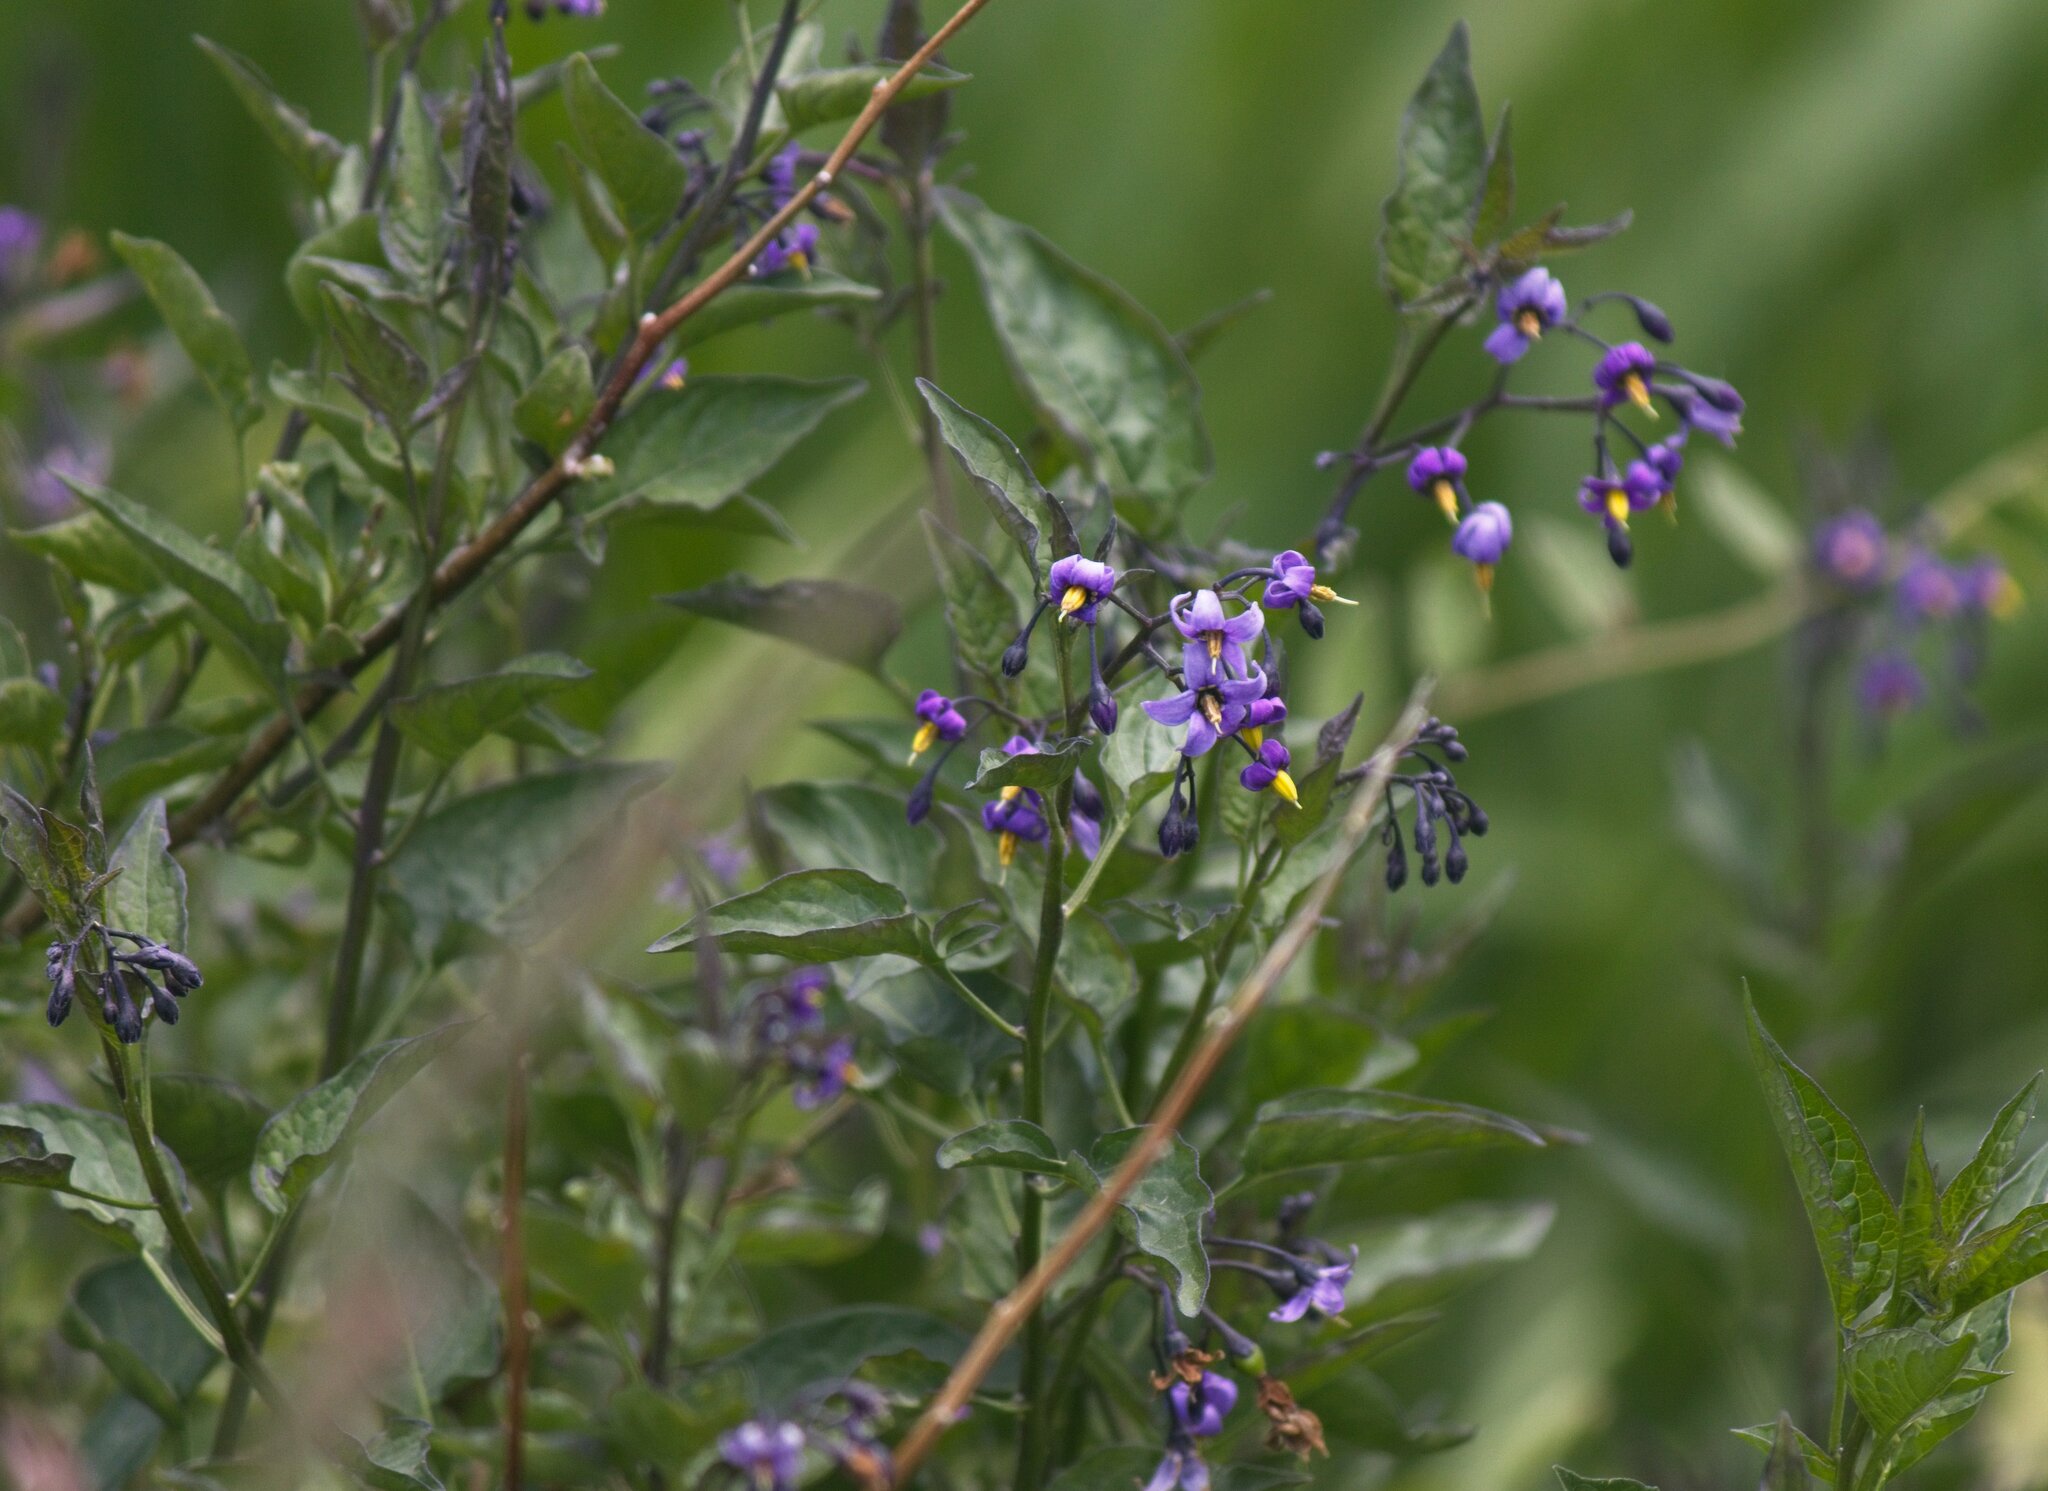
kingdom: Plantae
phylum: Tracheophyta
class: Magnoliopsida
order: Solanales
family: Solanaceae
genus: Solanum
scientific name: Solanum dulcamara
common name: Climbing nightshade
